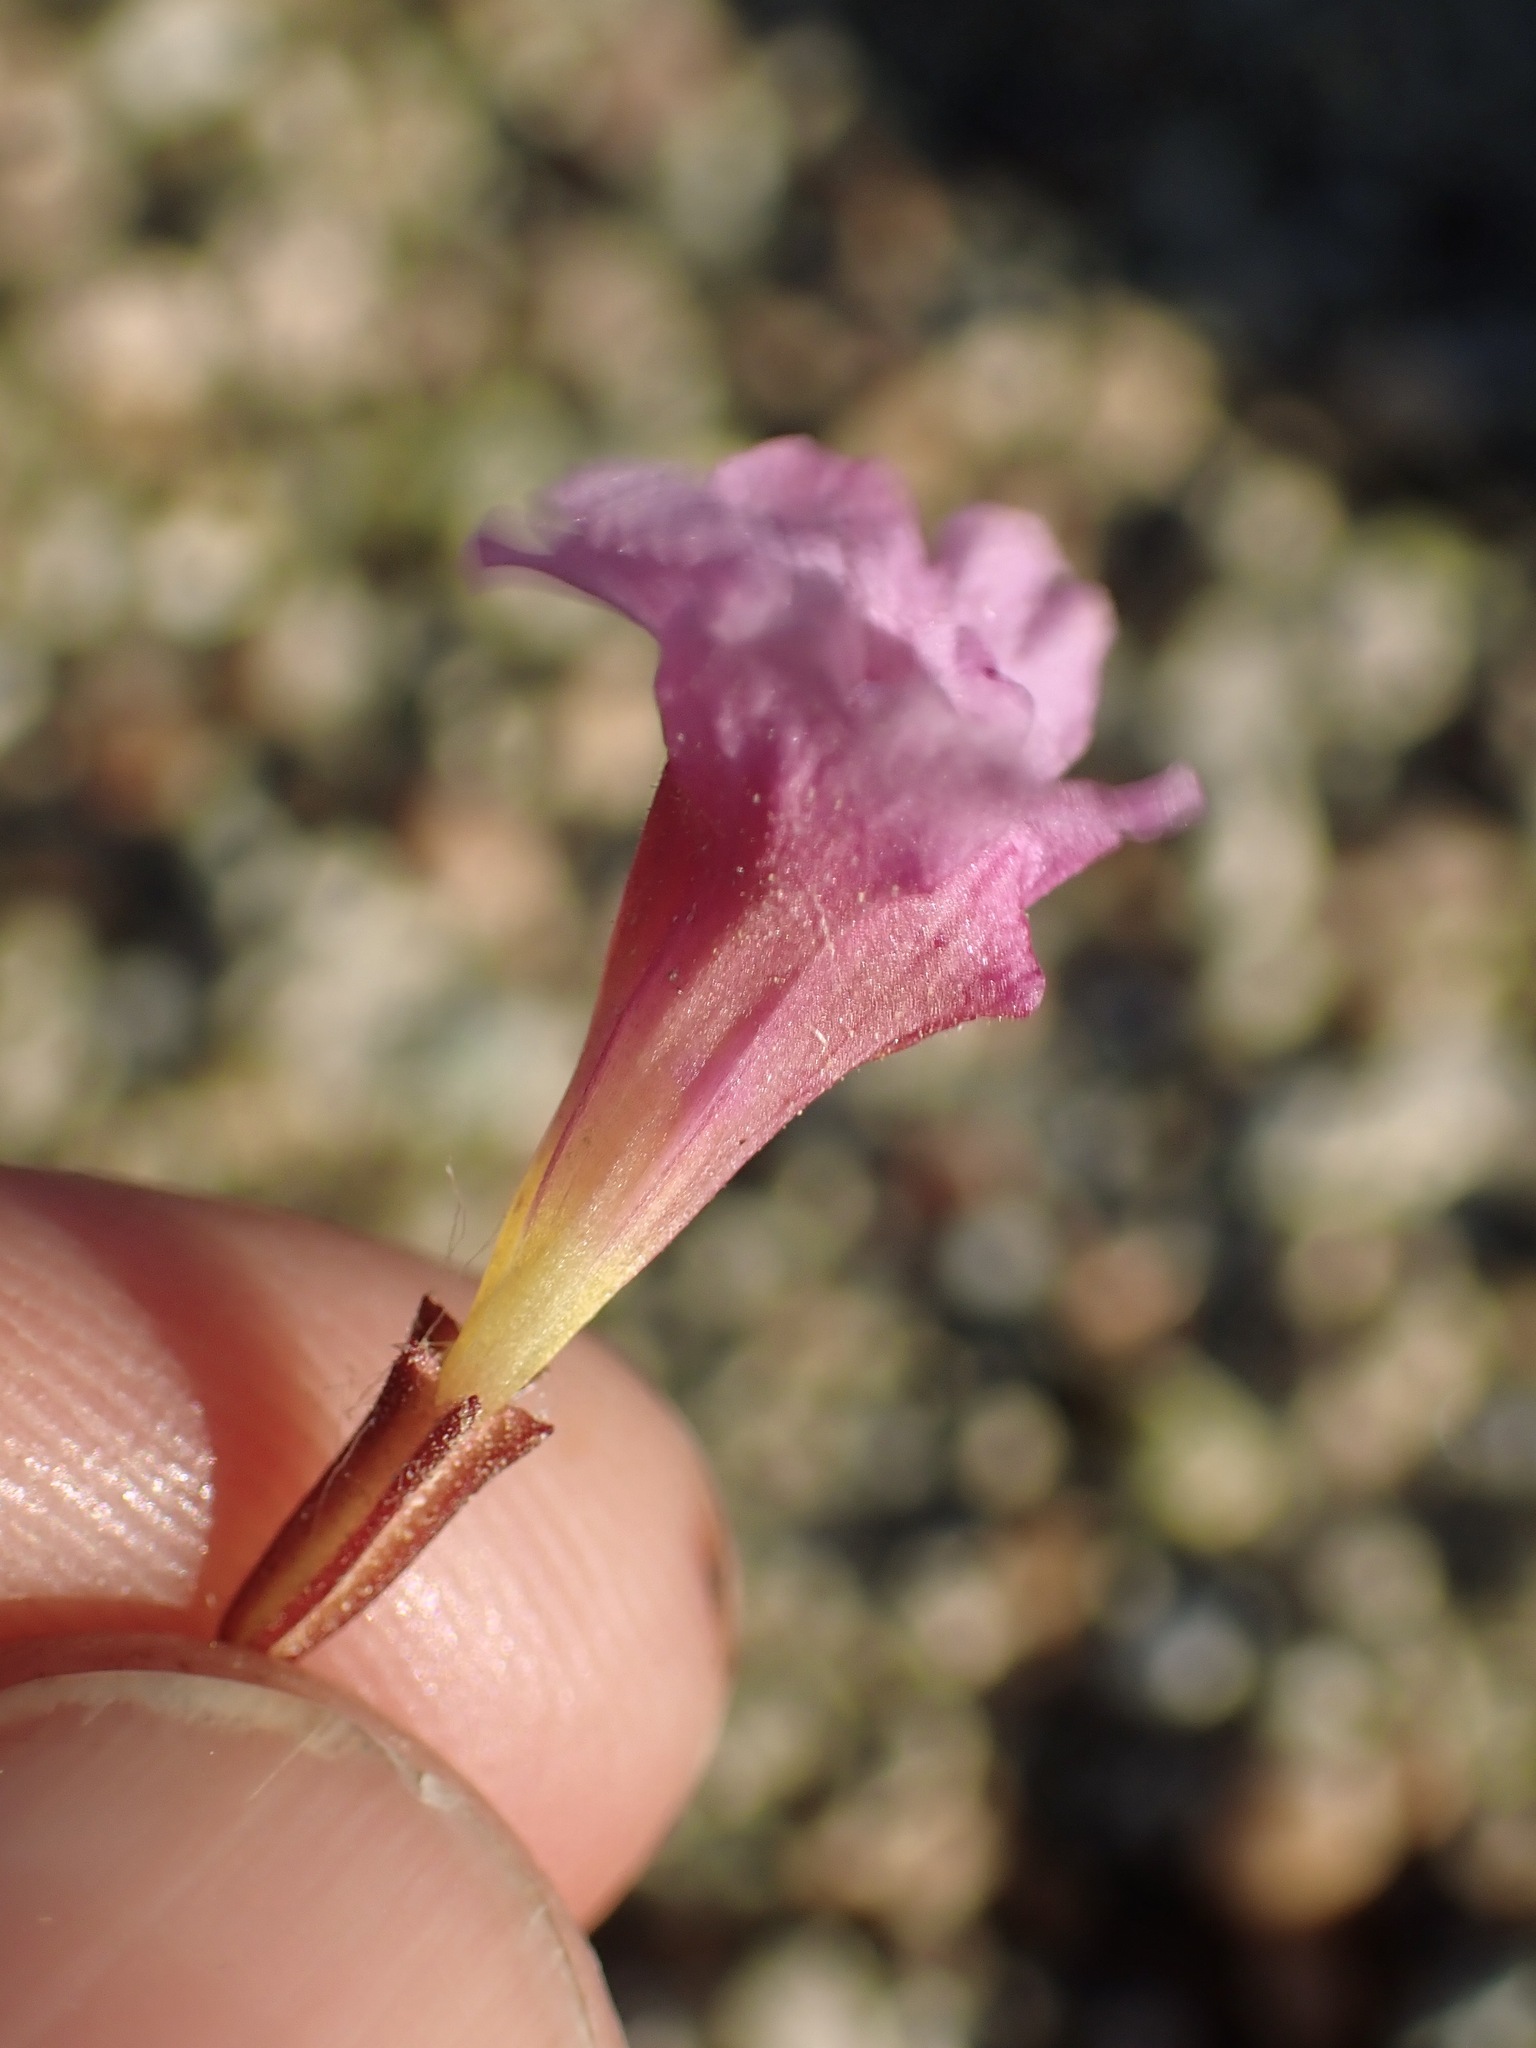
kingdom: Plantae
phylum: Tracheophyta
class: Magnoliopsida
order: Lamiales
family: Phrymaceae
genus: Erythranthe
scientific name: Erythranthe rhodopetra
